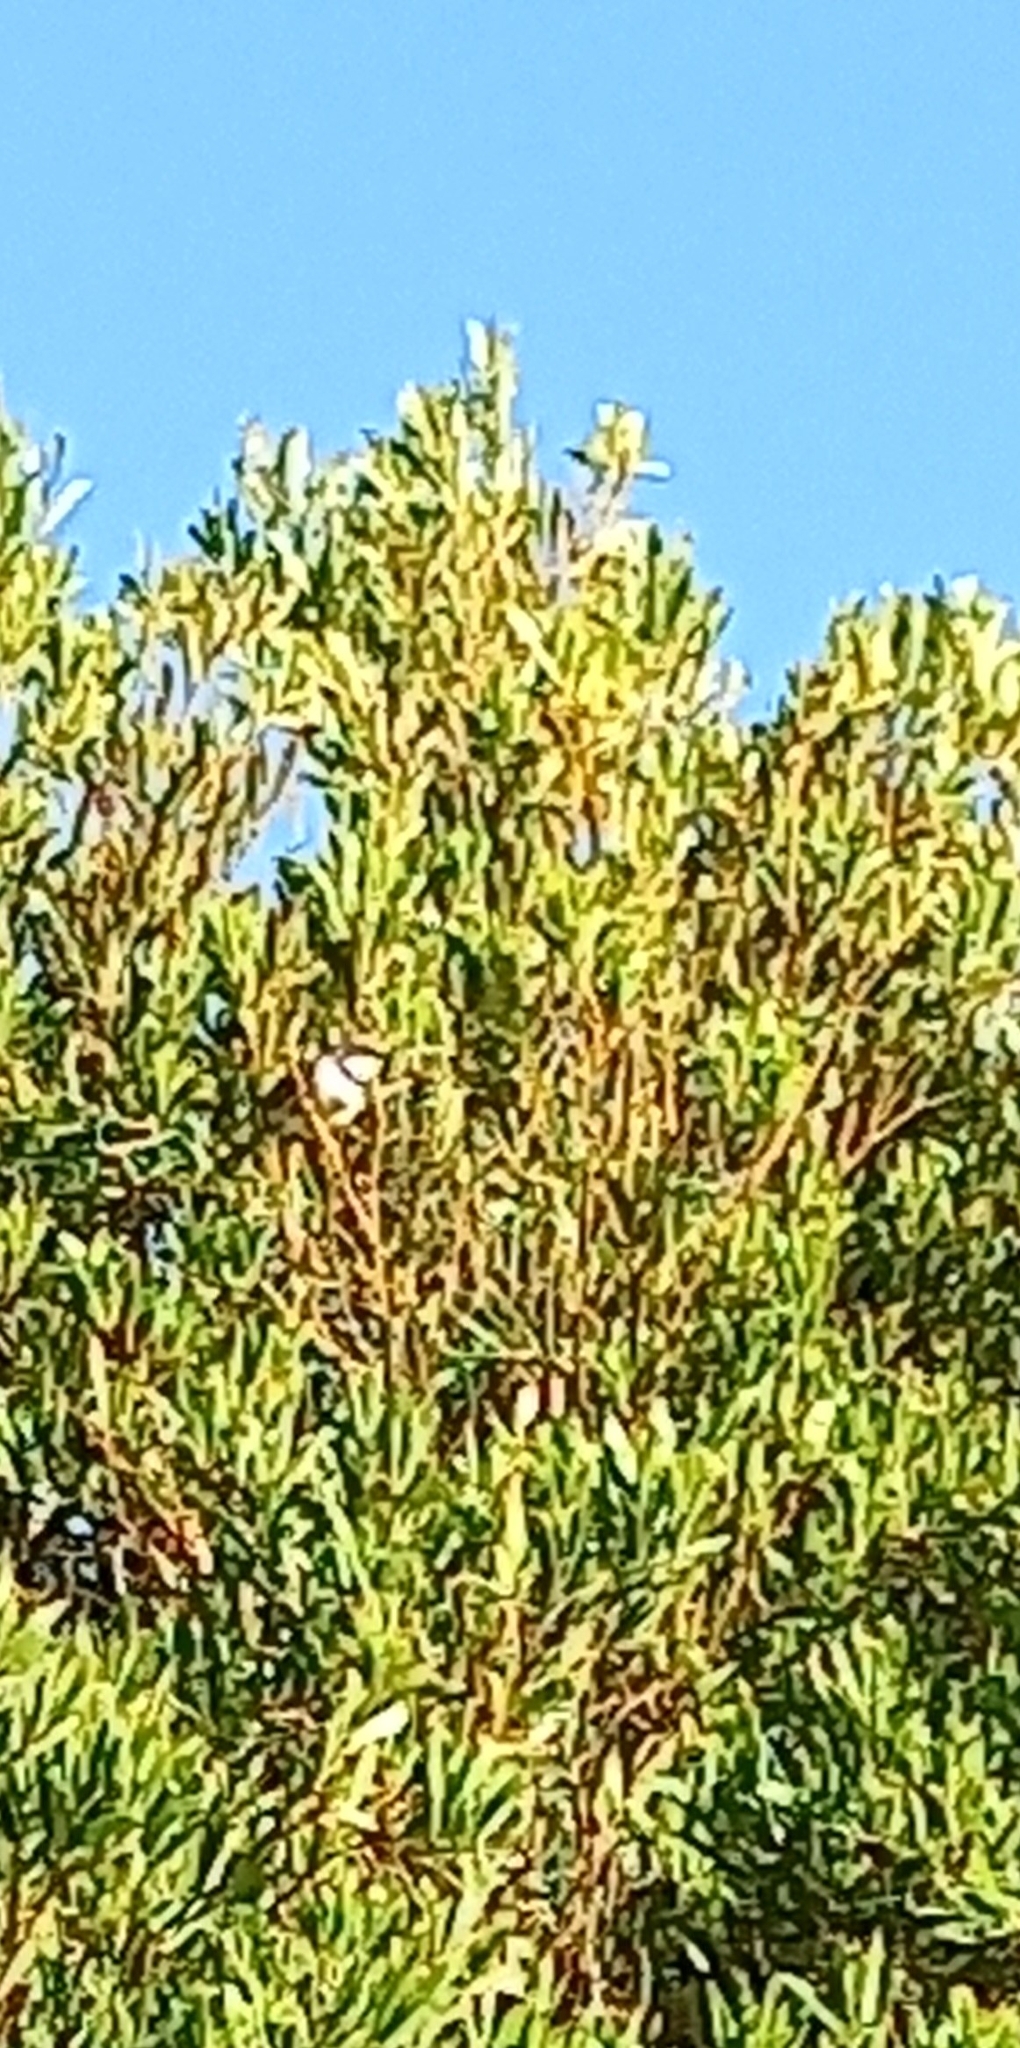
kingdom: Animalia
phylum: Chordata
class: Aves
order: Passeriformes
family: Cisticolidae
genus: Apalis
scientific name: Apalis thoracica
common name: Bar-throated apalis
